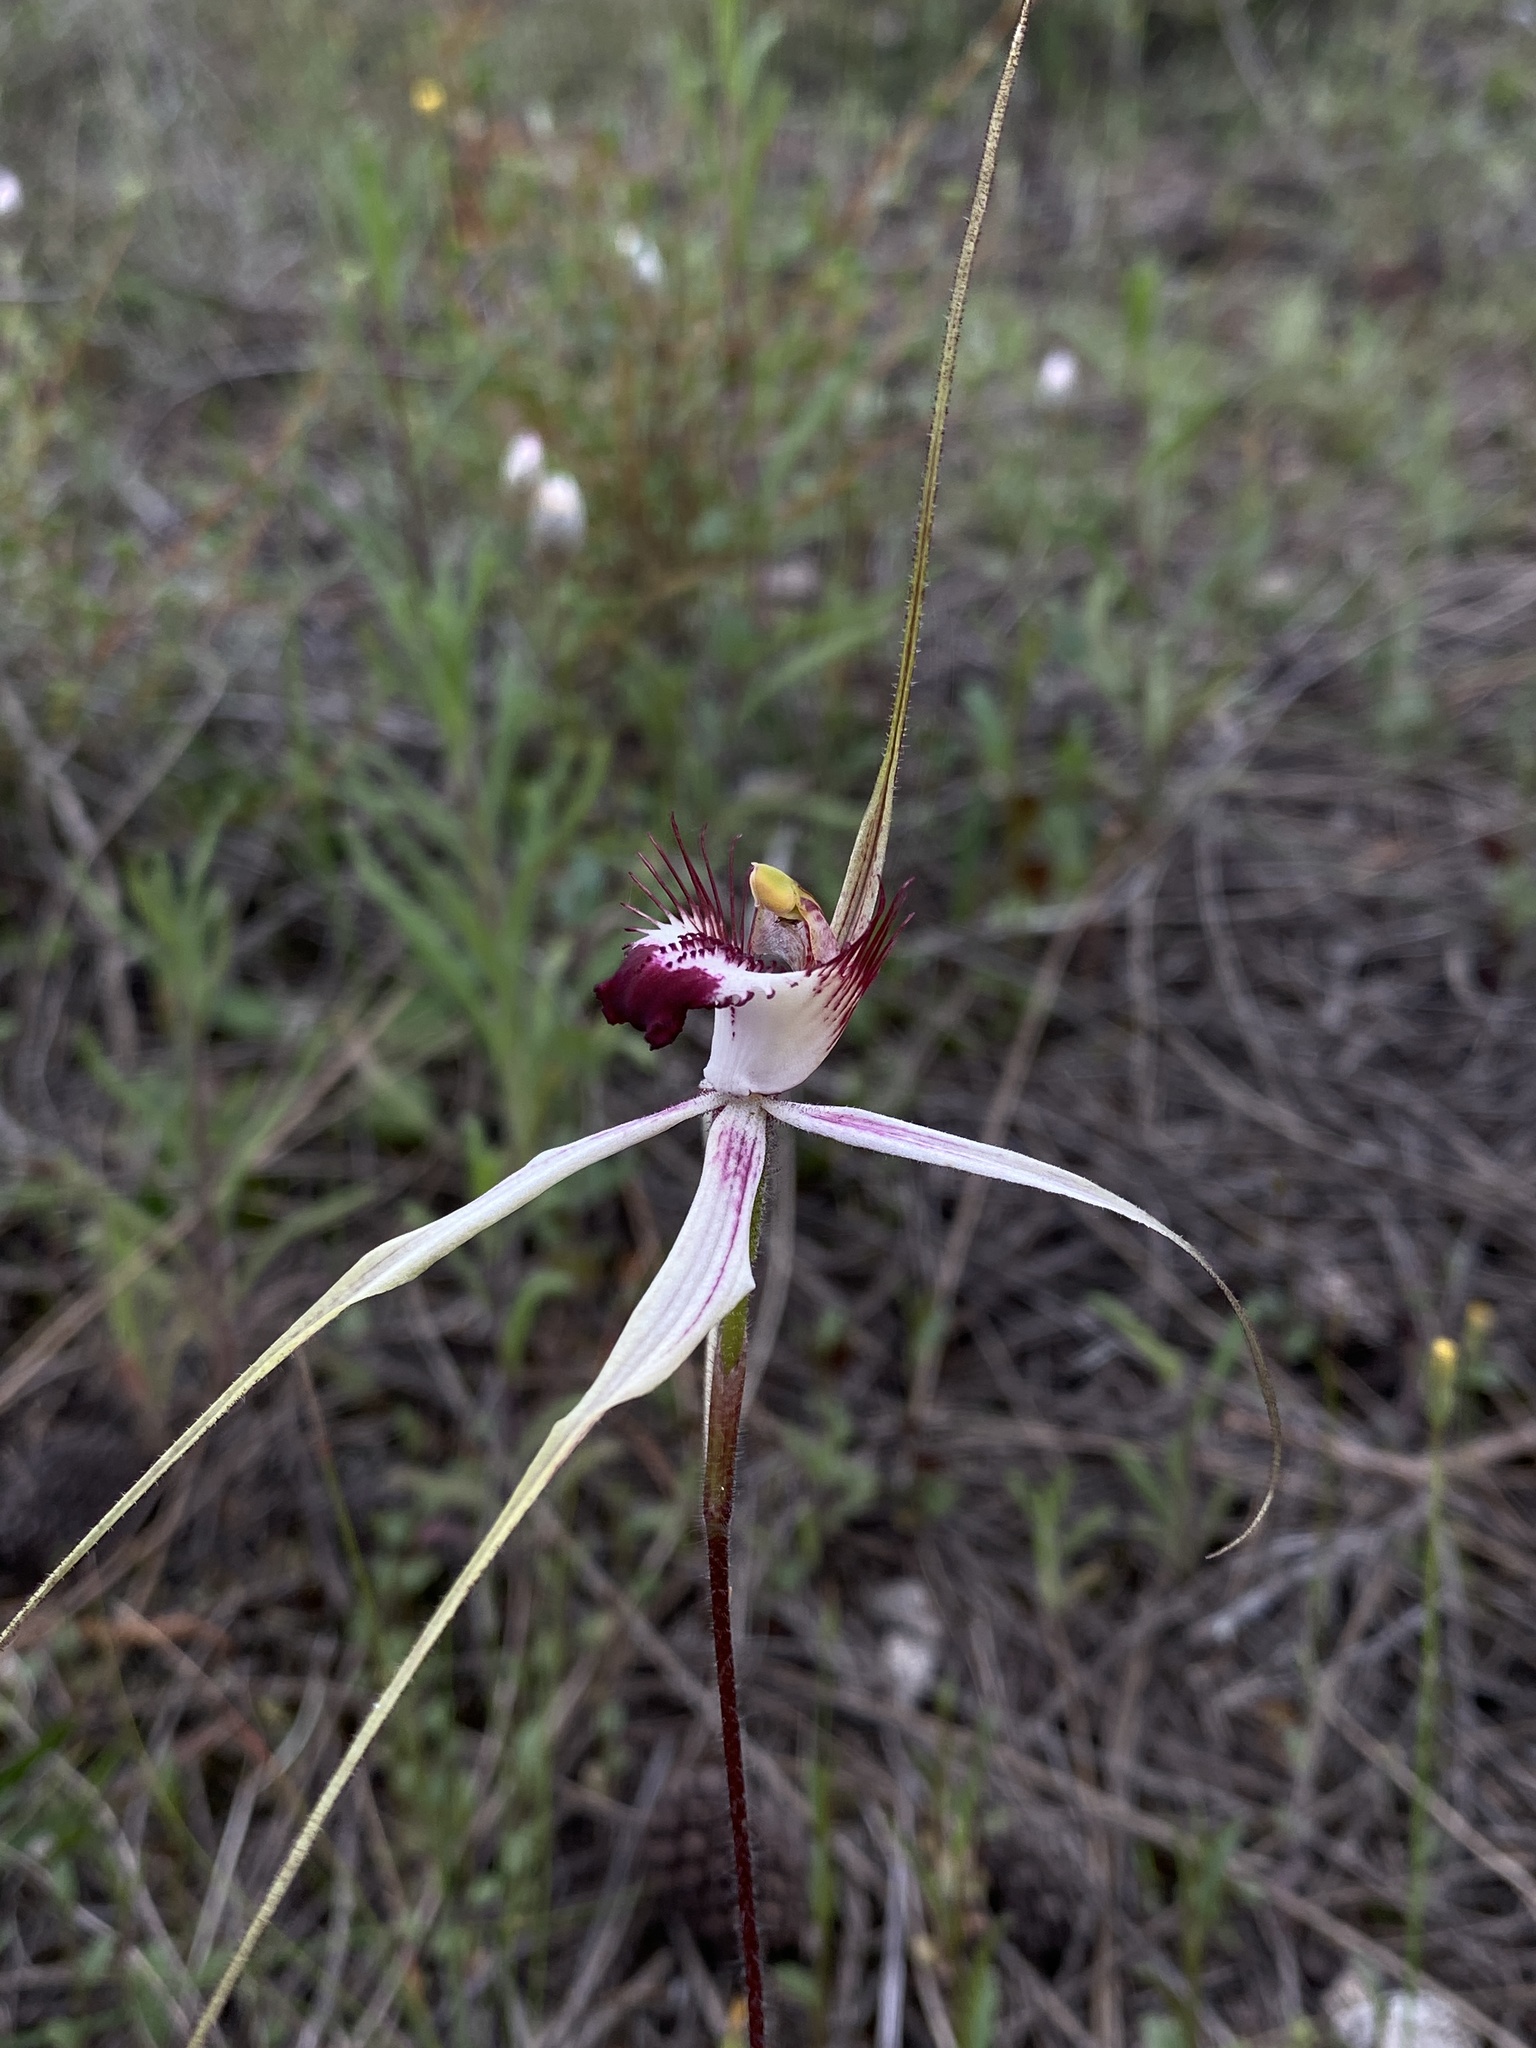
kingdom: Plantae
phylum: Tracheophyta
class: Liliopsida
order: Asparagales
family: Orchidaceae
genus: Caladenia
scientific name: Caladenia cala
